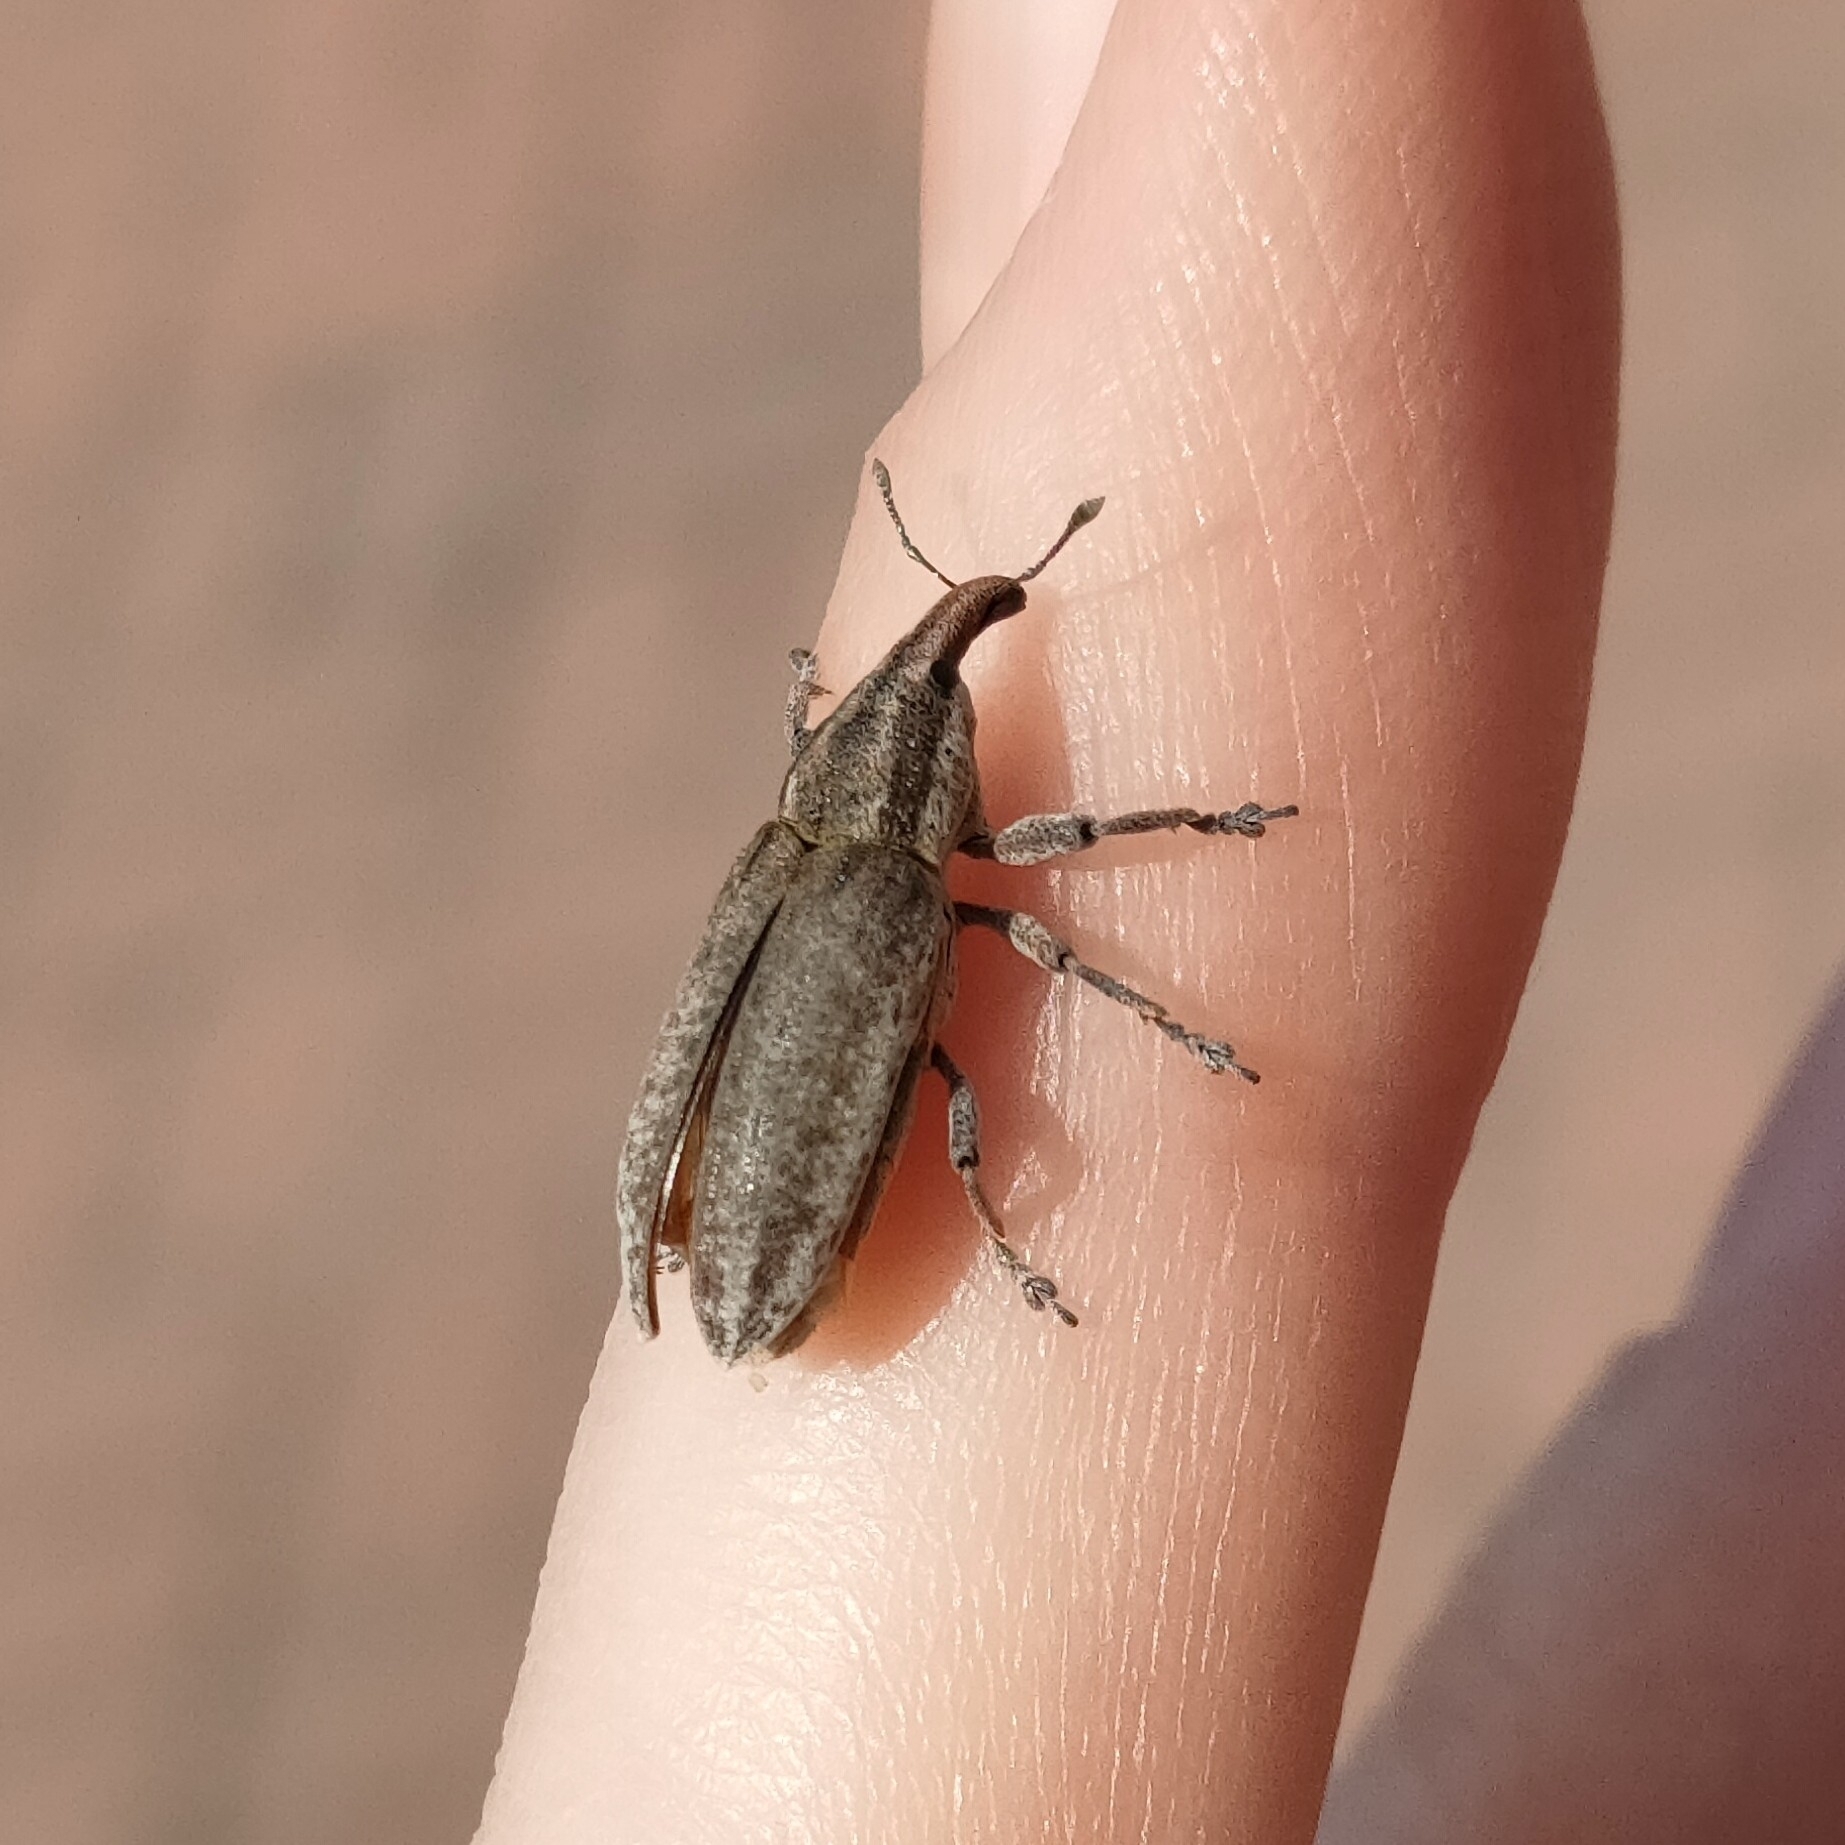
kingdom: Animalia
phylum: Arthropoda
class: Insecta
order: Coleoptera
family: Curculionidae
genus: Lixus
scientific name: Lixus myagri
